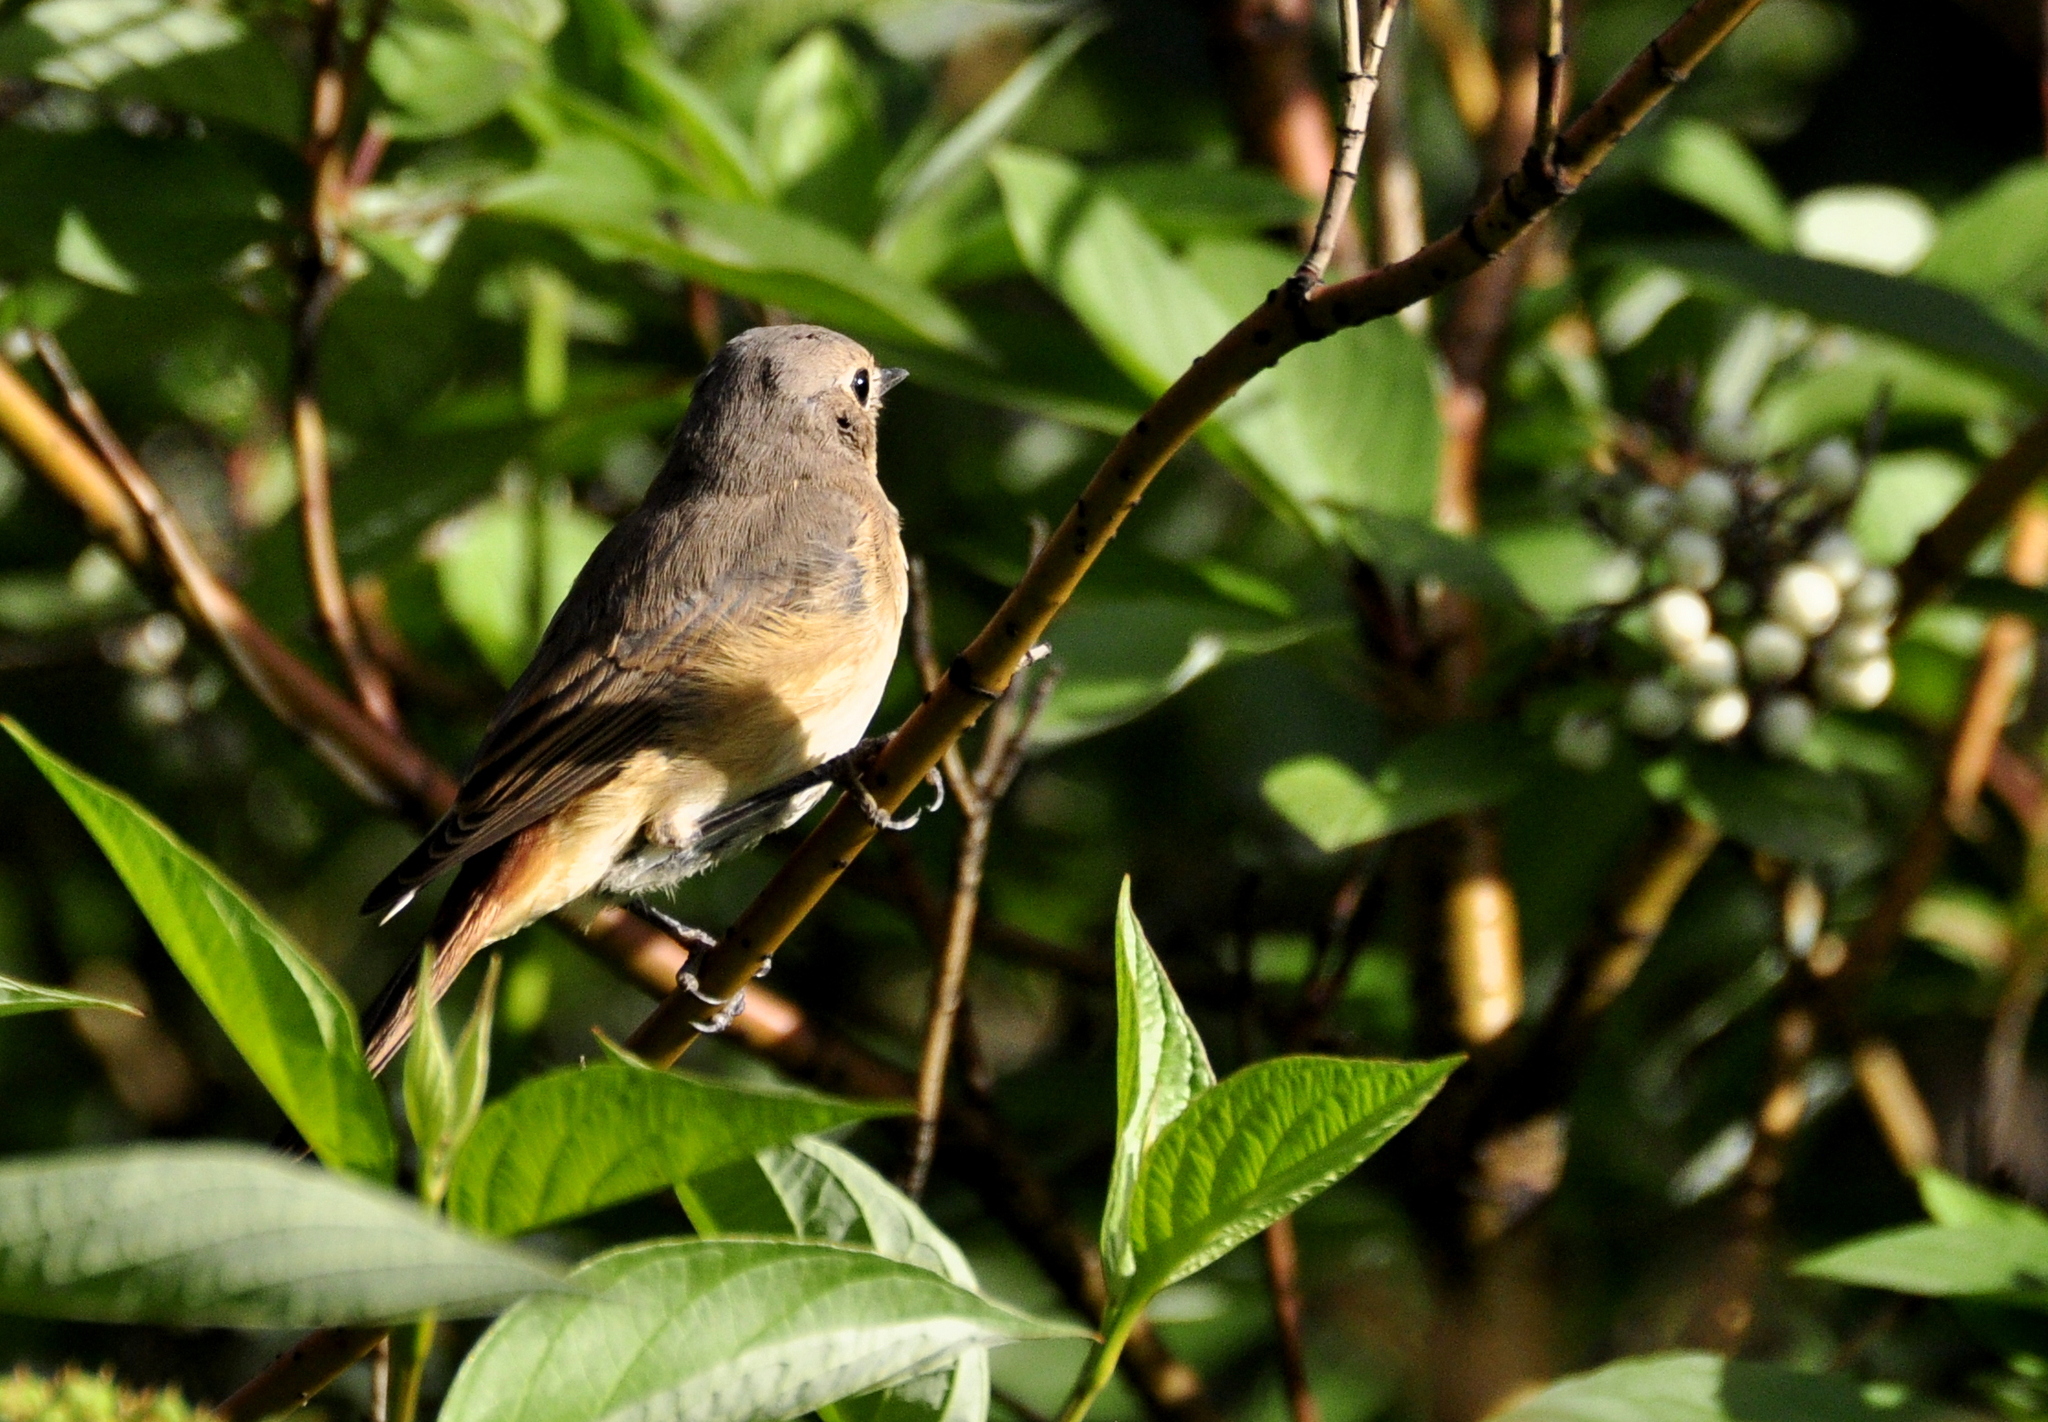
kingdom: Animalia
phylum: Chordata
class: Aves
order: Passeriformes
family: Muscicapidae
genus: Phoenicurus
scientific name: Phoenicurus phoenicurus
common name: Common redstart
